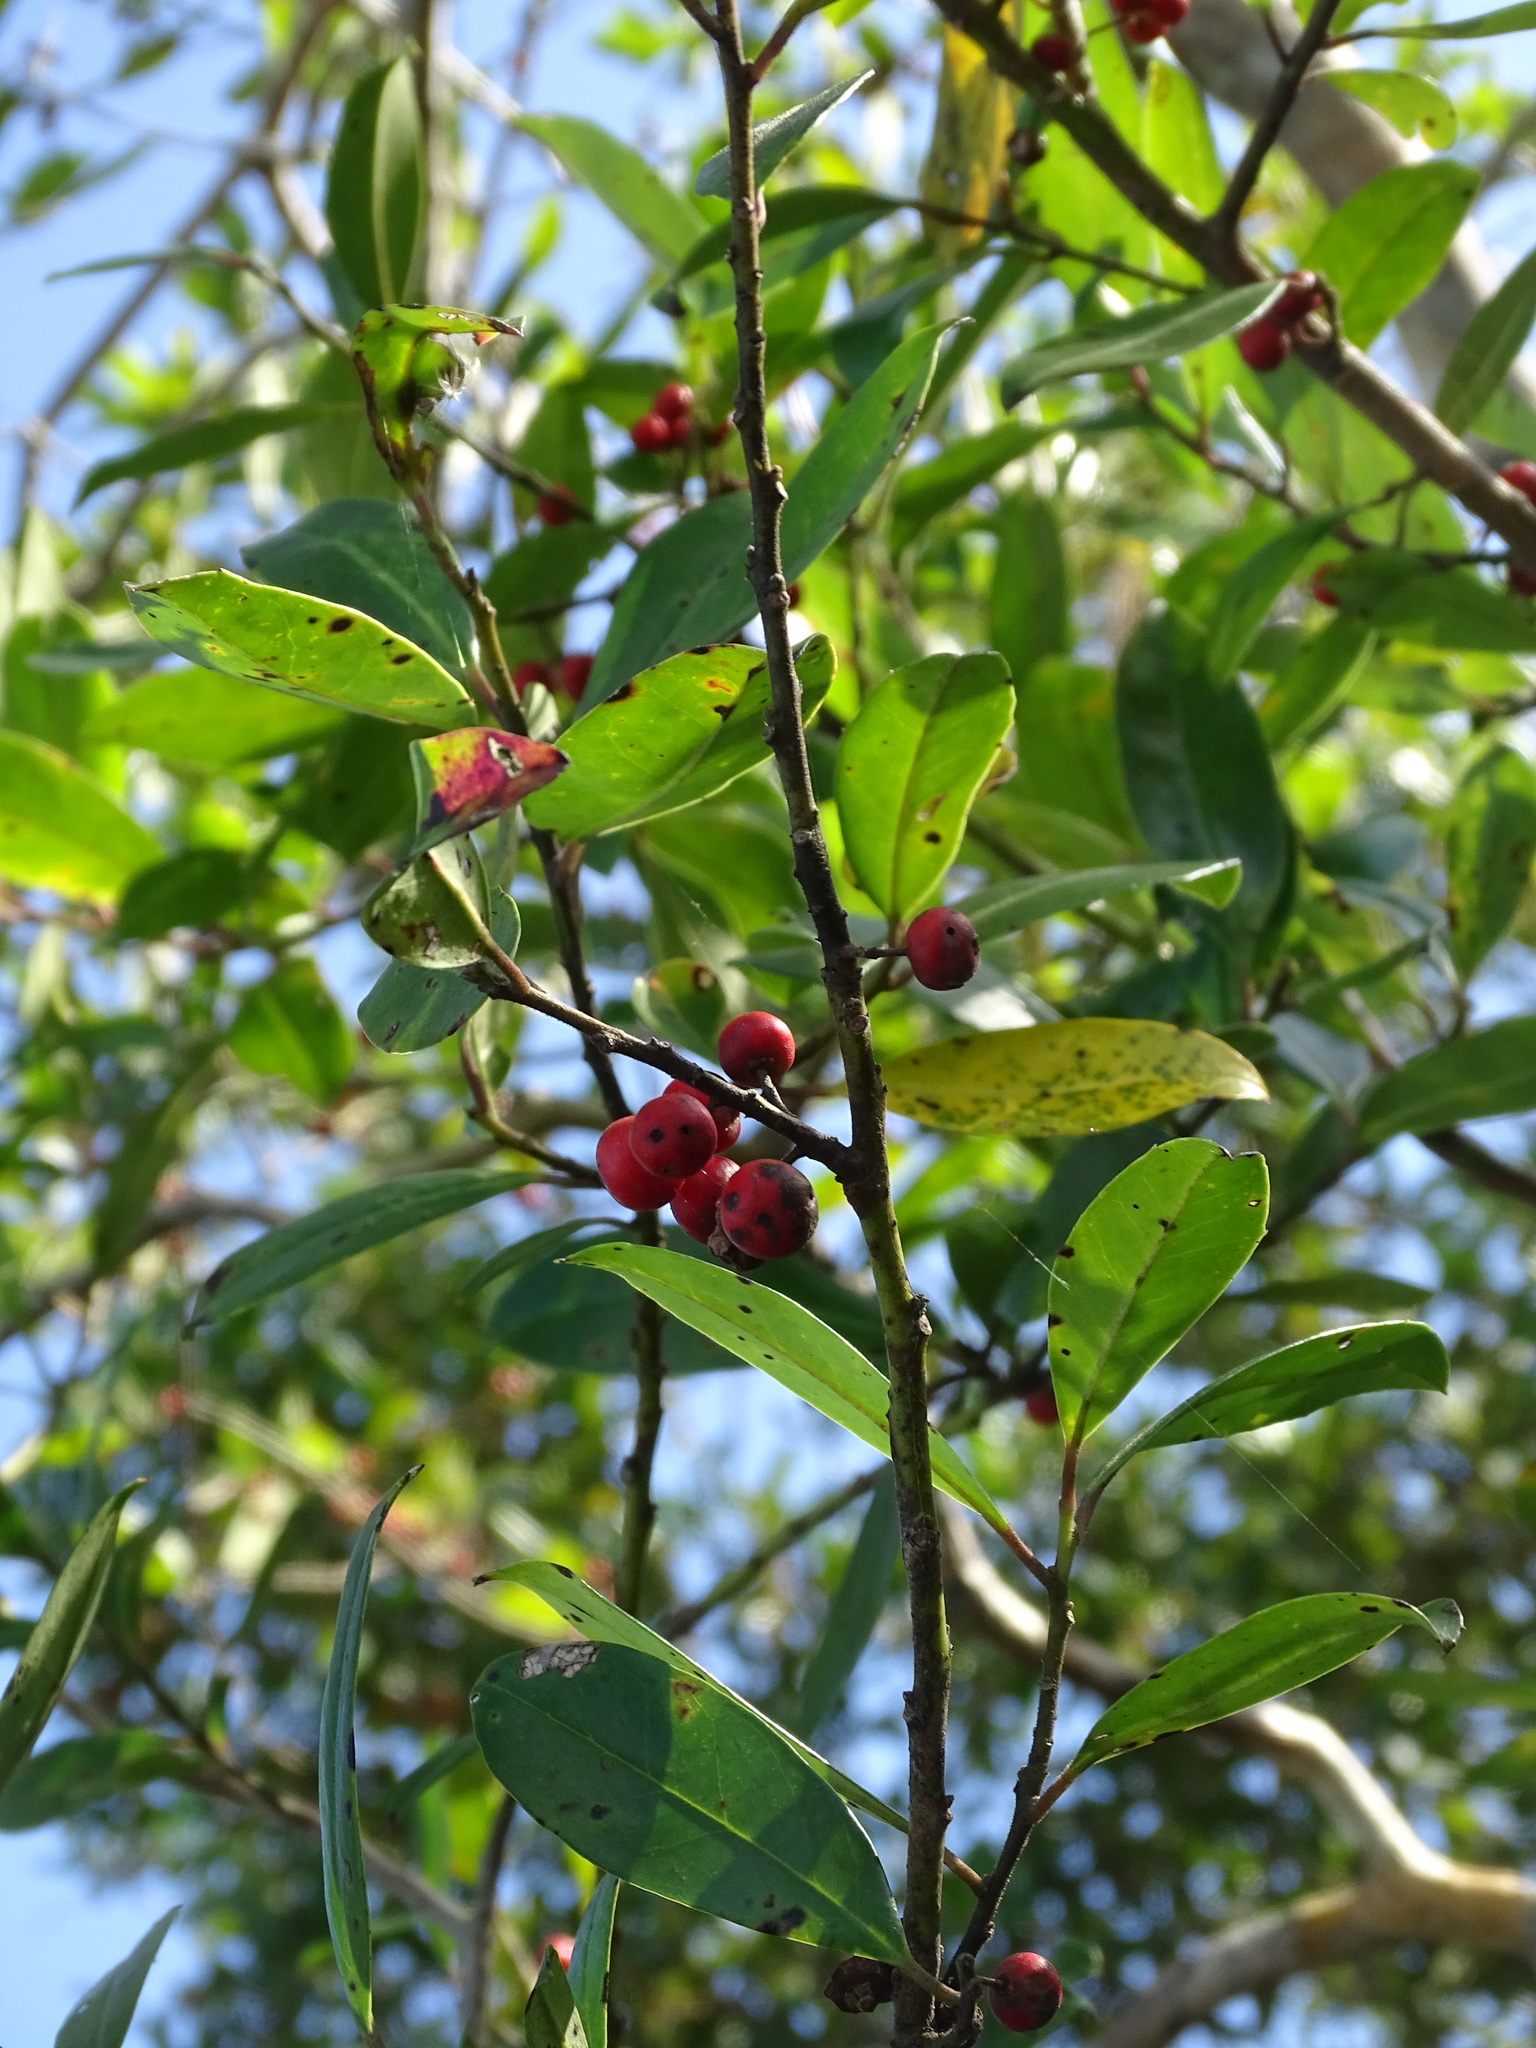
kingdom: Plantae
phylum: Tracheophyta
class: Magnoliopsida
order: Aquifoliales
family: Aquifoliaceae
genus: Ilex
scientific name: Ilex cassine
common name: Dahoon
